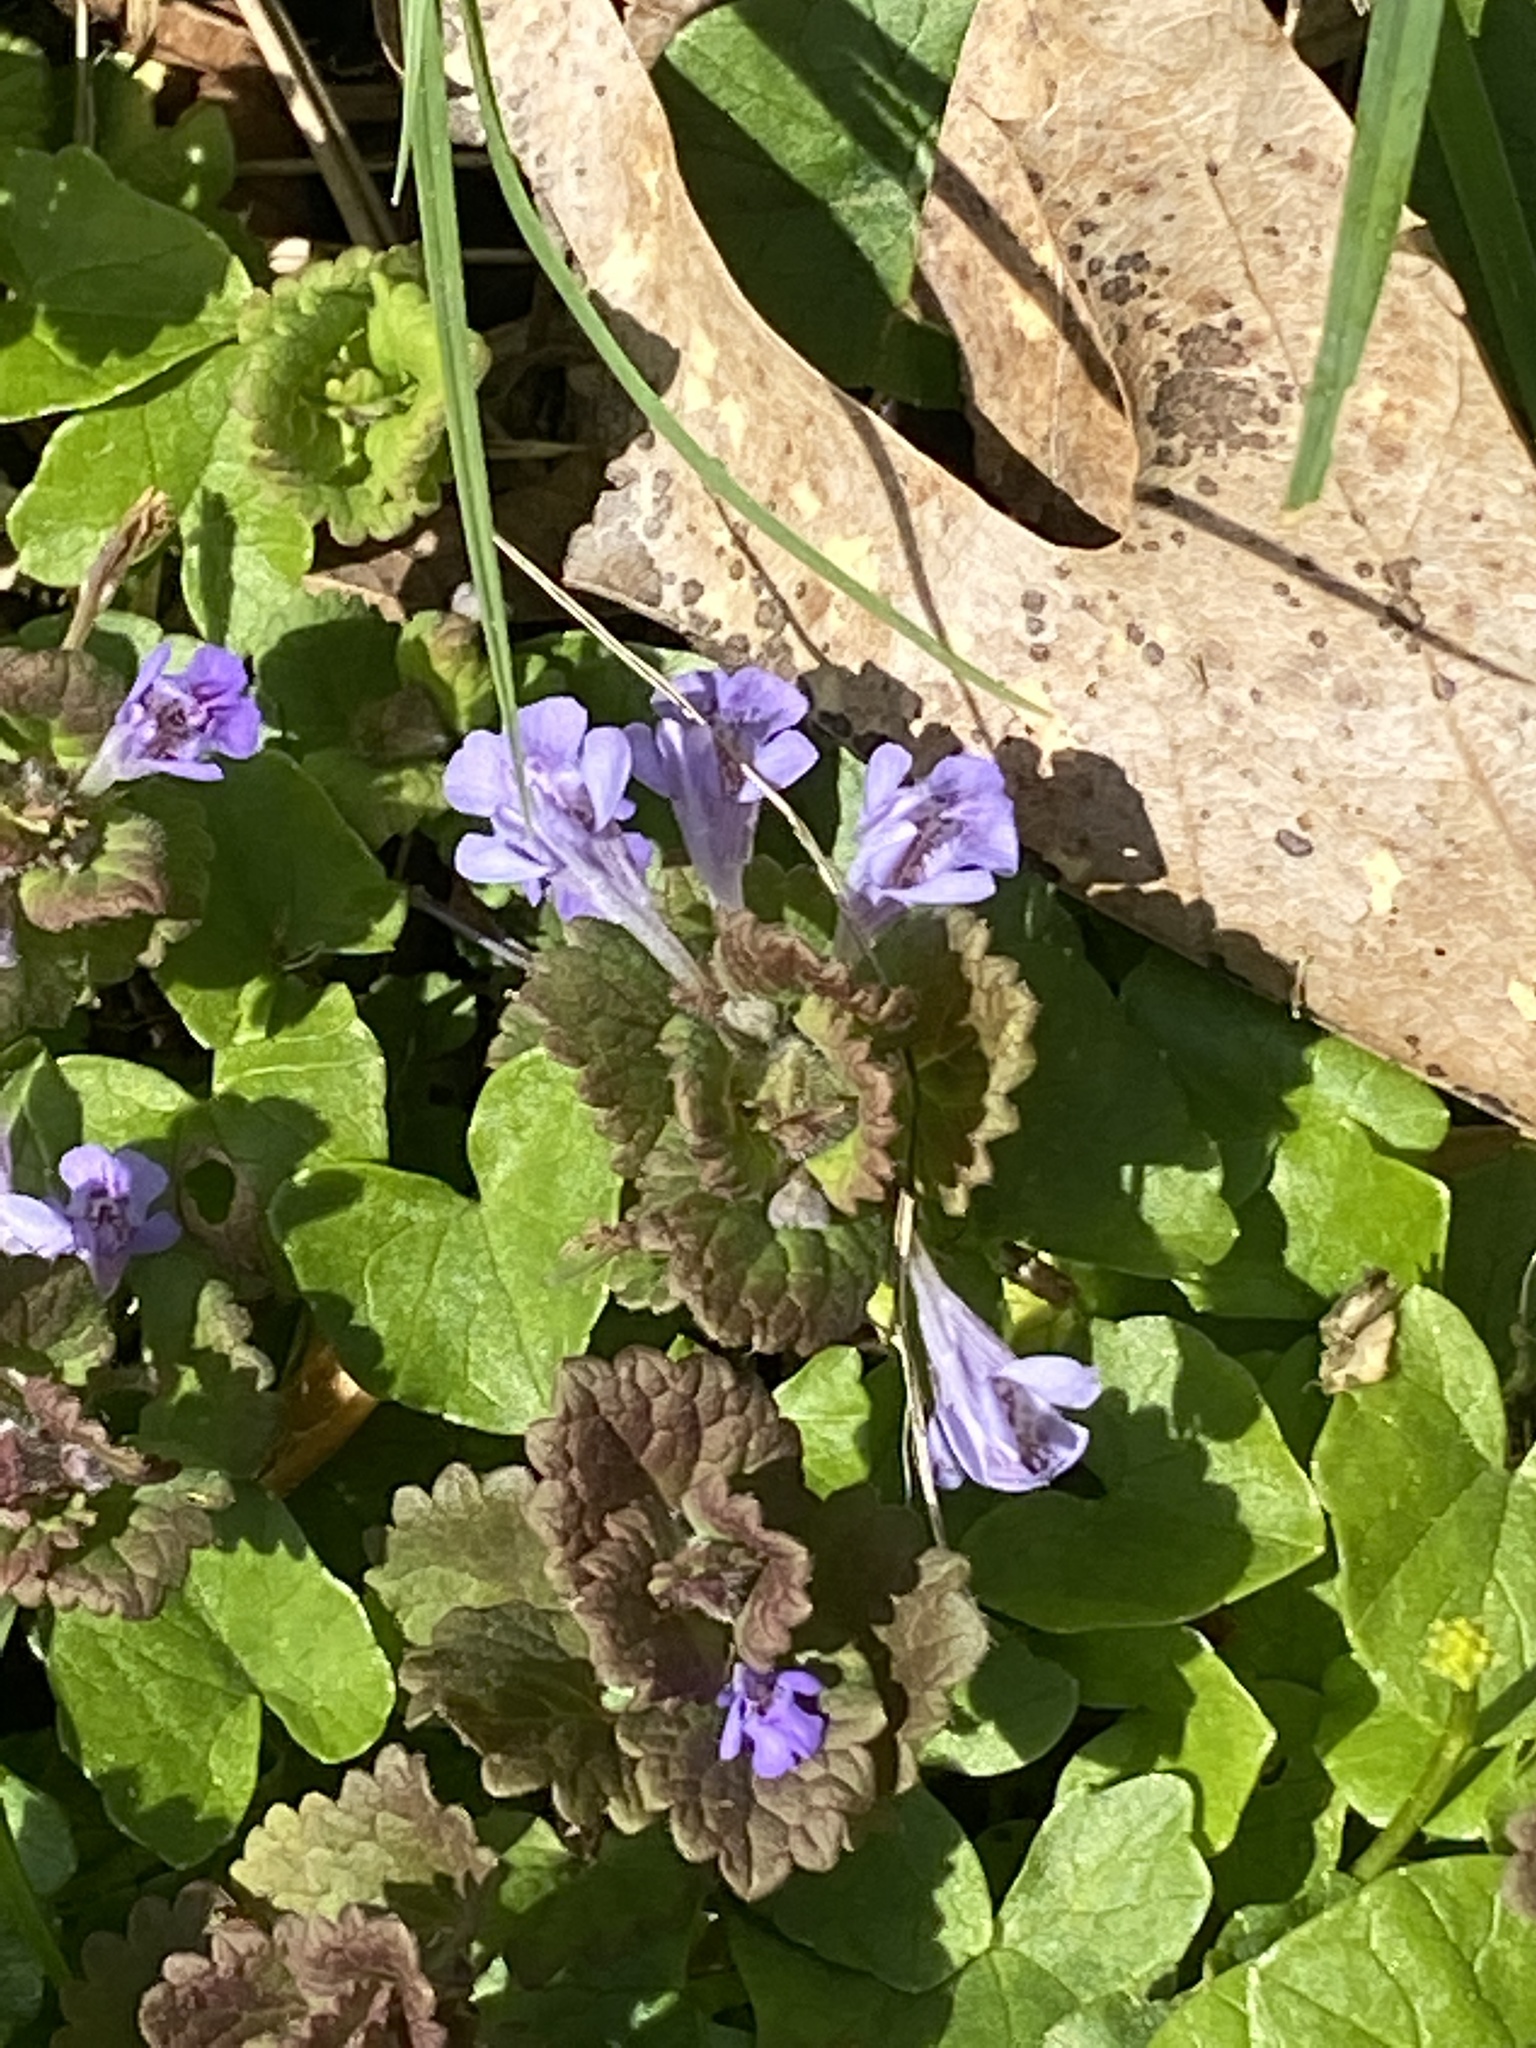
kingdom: Plantae
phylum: Tracheophyta
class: Magnoliopsida
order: Lamiales
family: Lamiaceae
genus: Glechoma
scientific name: Glechoma hederacea
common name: Ground ivy
